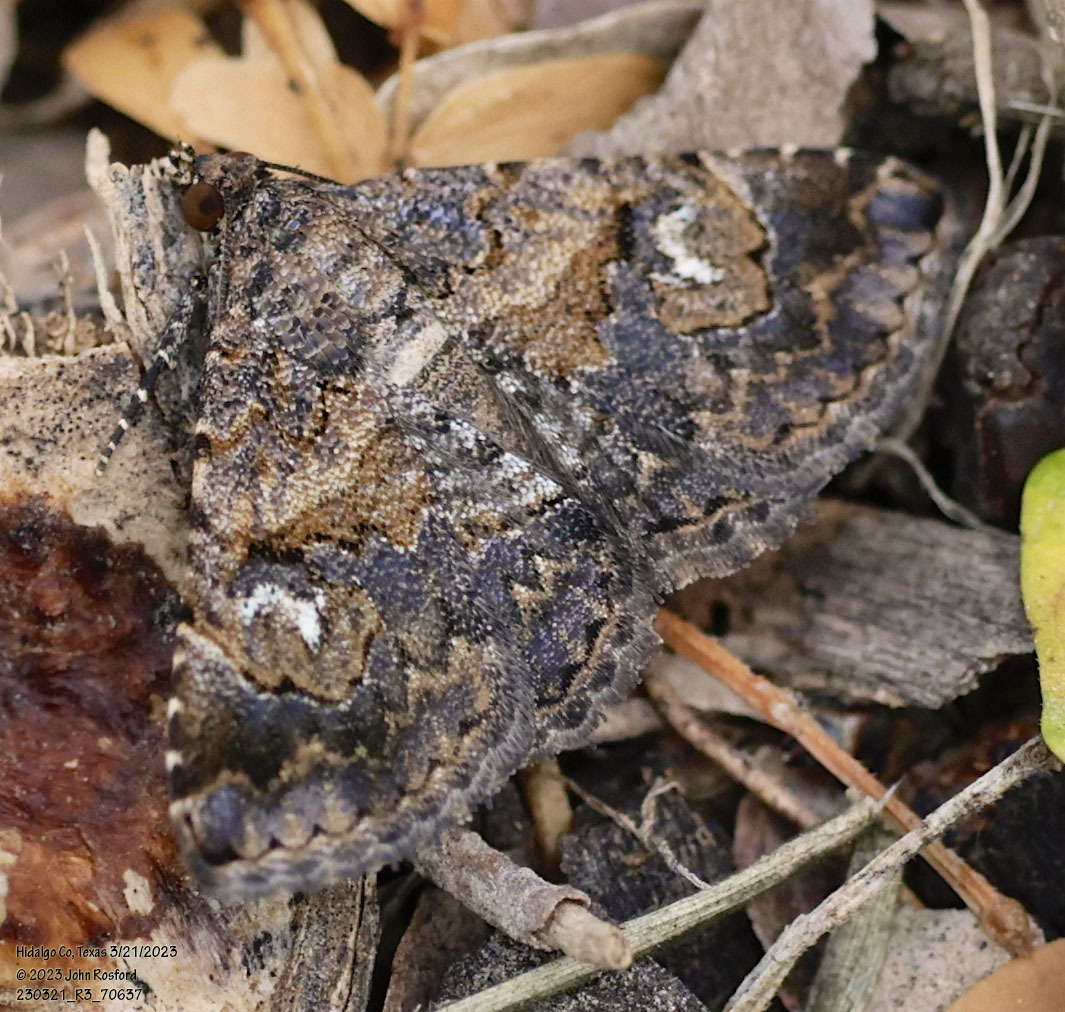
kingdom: Animalia
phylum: Arthropoda
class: Insecta
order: Lepidoptera
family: Erebidae
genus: Toxonprucha
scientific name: Toxonprucha excavata
